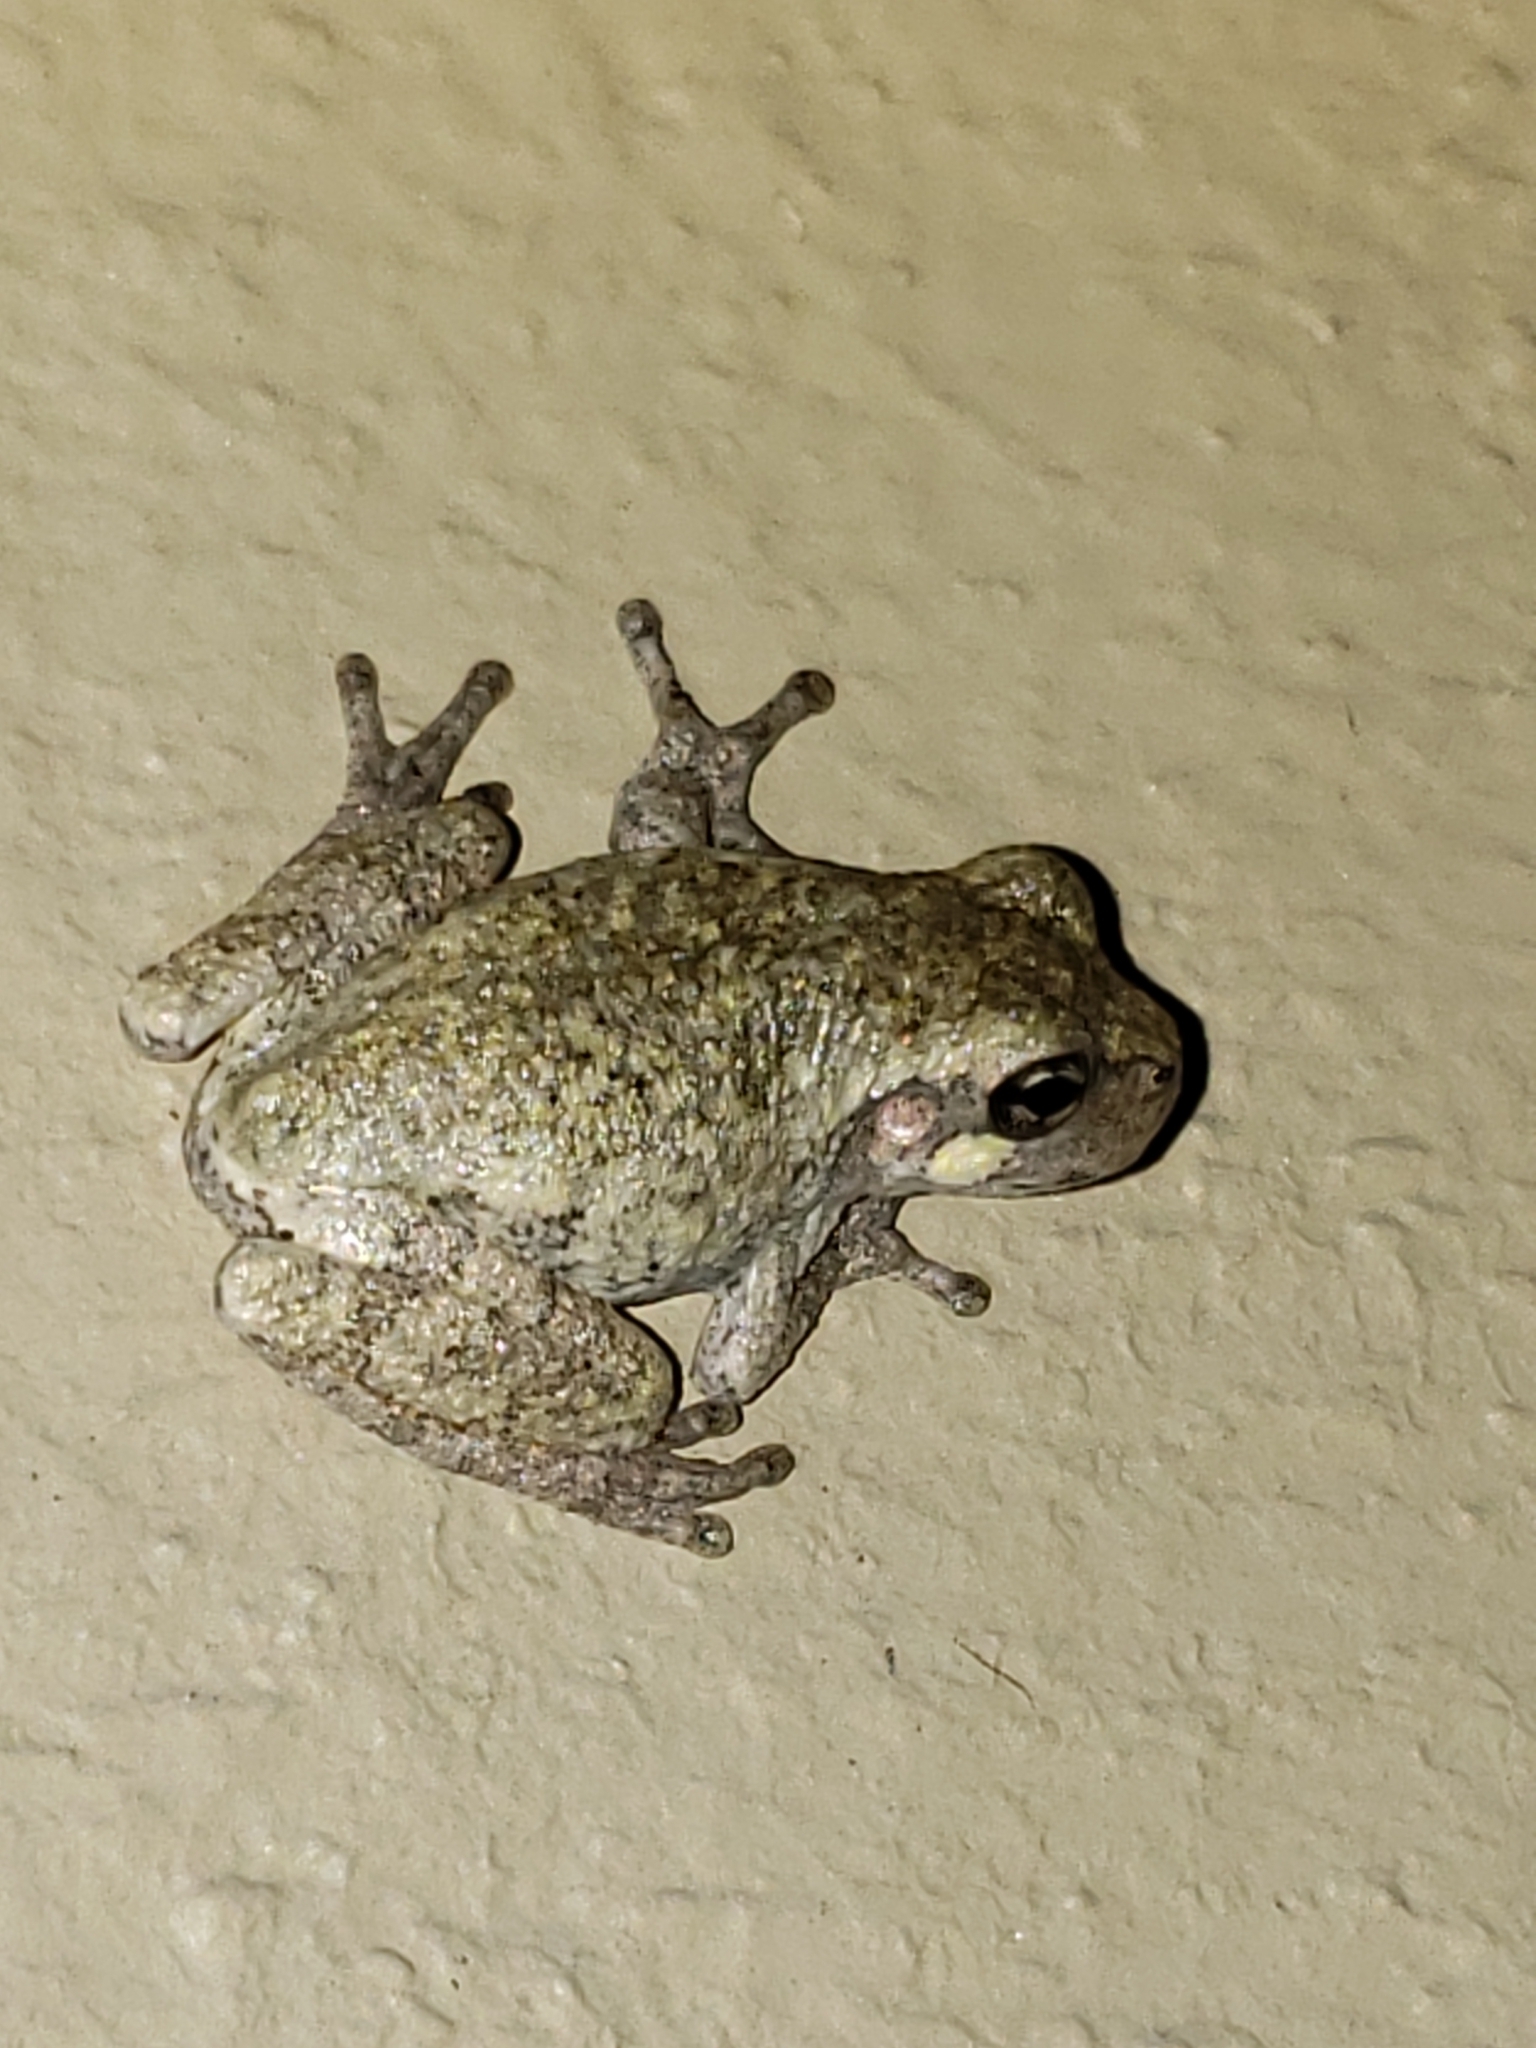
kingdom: Animalia
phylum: Chordata
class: Amphibia
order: Anura
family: Hylidae
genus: Hyla
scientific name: Hyla
